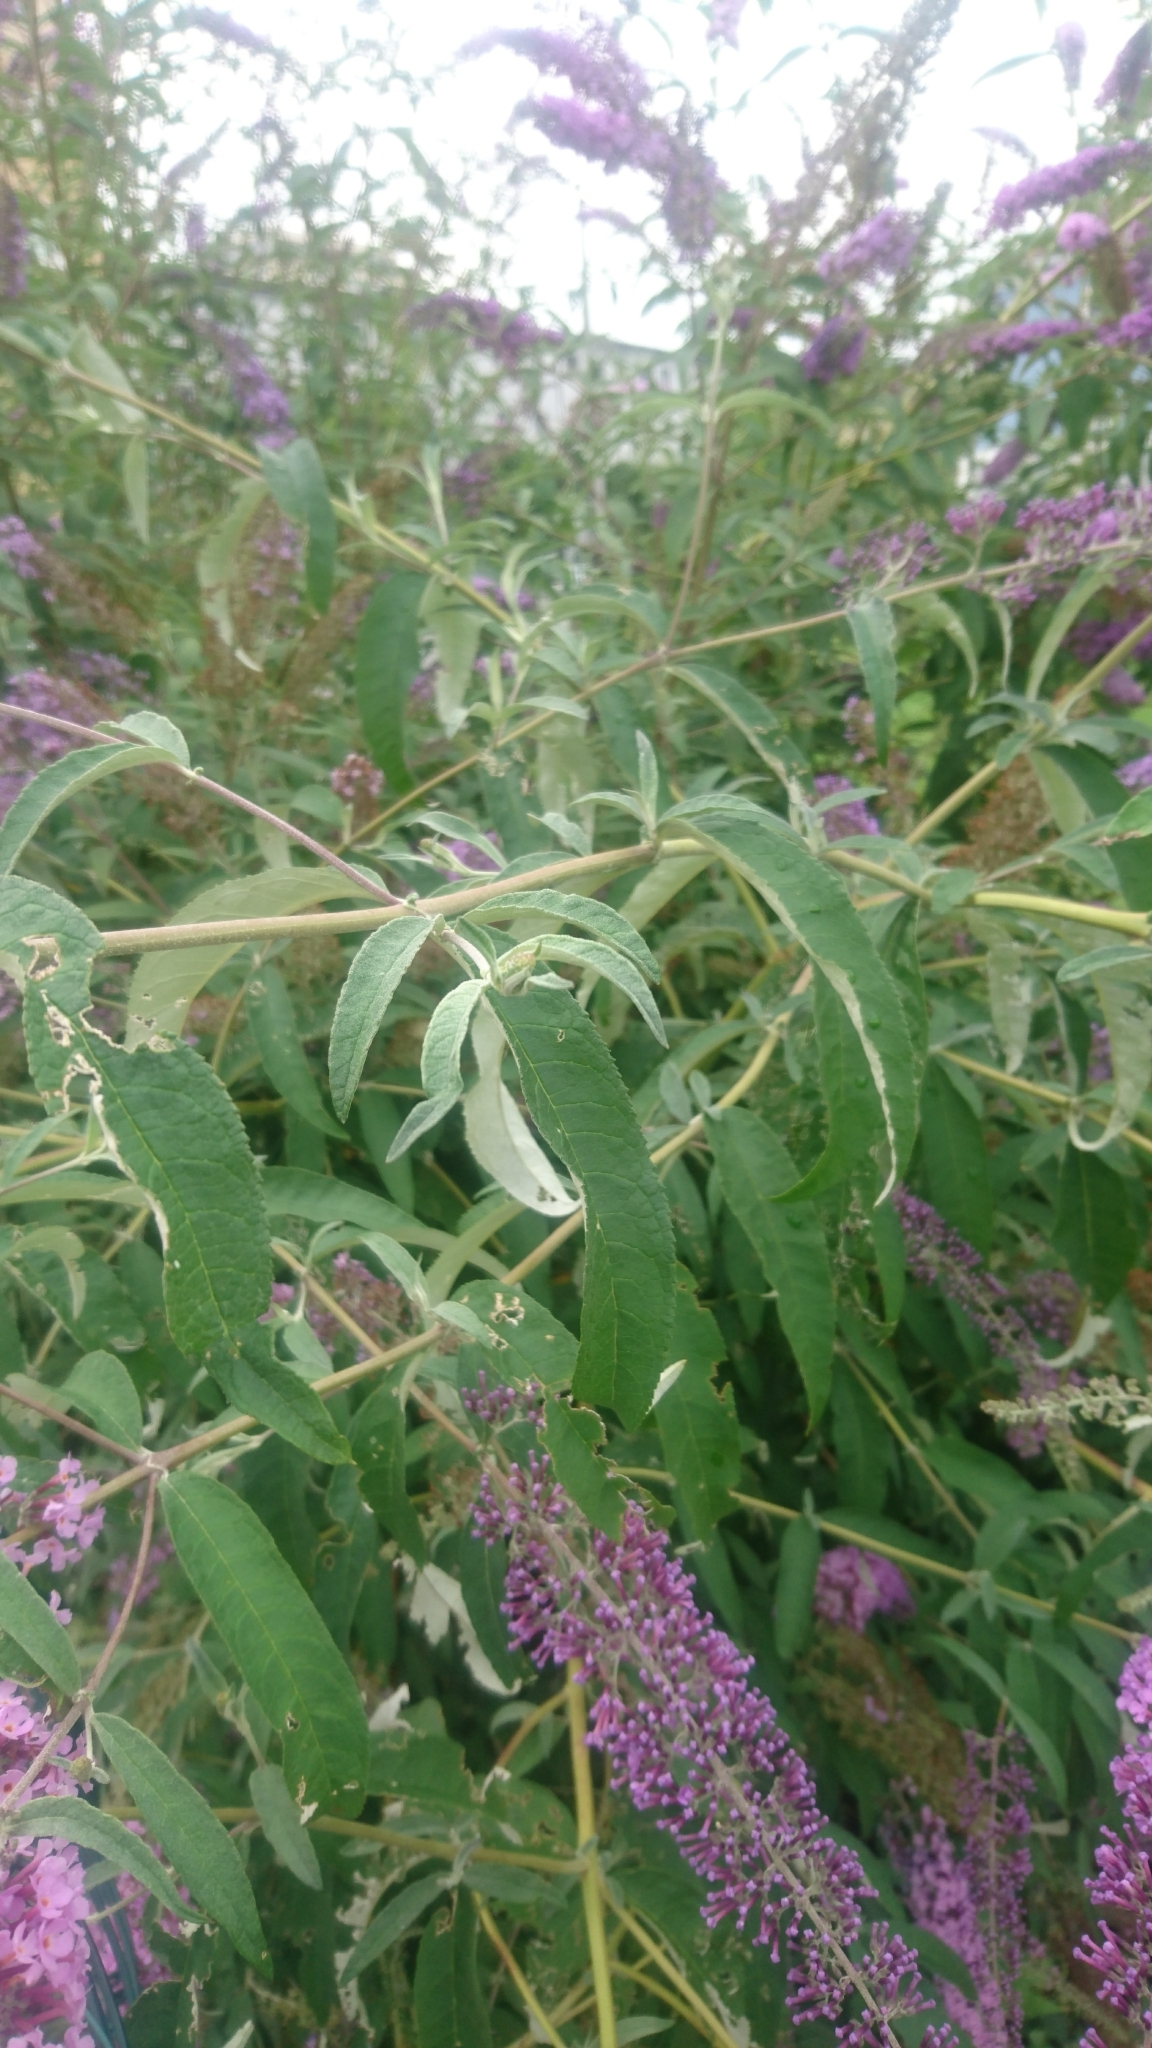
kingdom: Plantae
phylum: Tracheophyta
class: Magnoliopsida
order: Lamiales
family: Scrophulariaceae
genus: Buddleja
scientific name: Buddleja davidii
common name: Butterfly-bush
